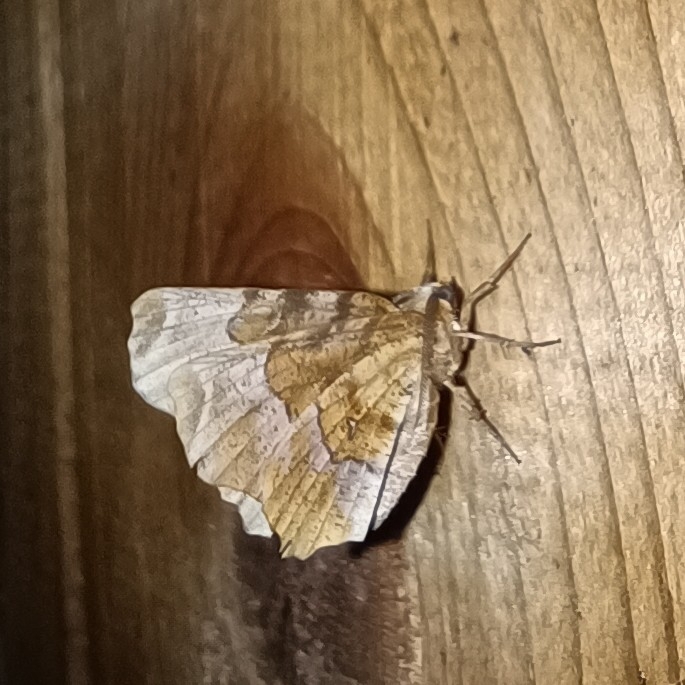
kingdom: Animalia
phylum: Arthropoda
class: Insecta
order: Lepidoptera
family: Geometridae
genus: Selenia
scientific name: Selenia tetralunaria
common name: Purple thorn
